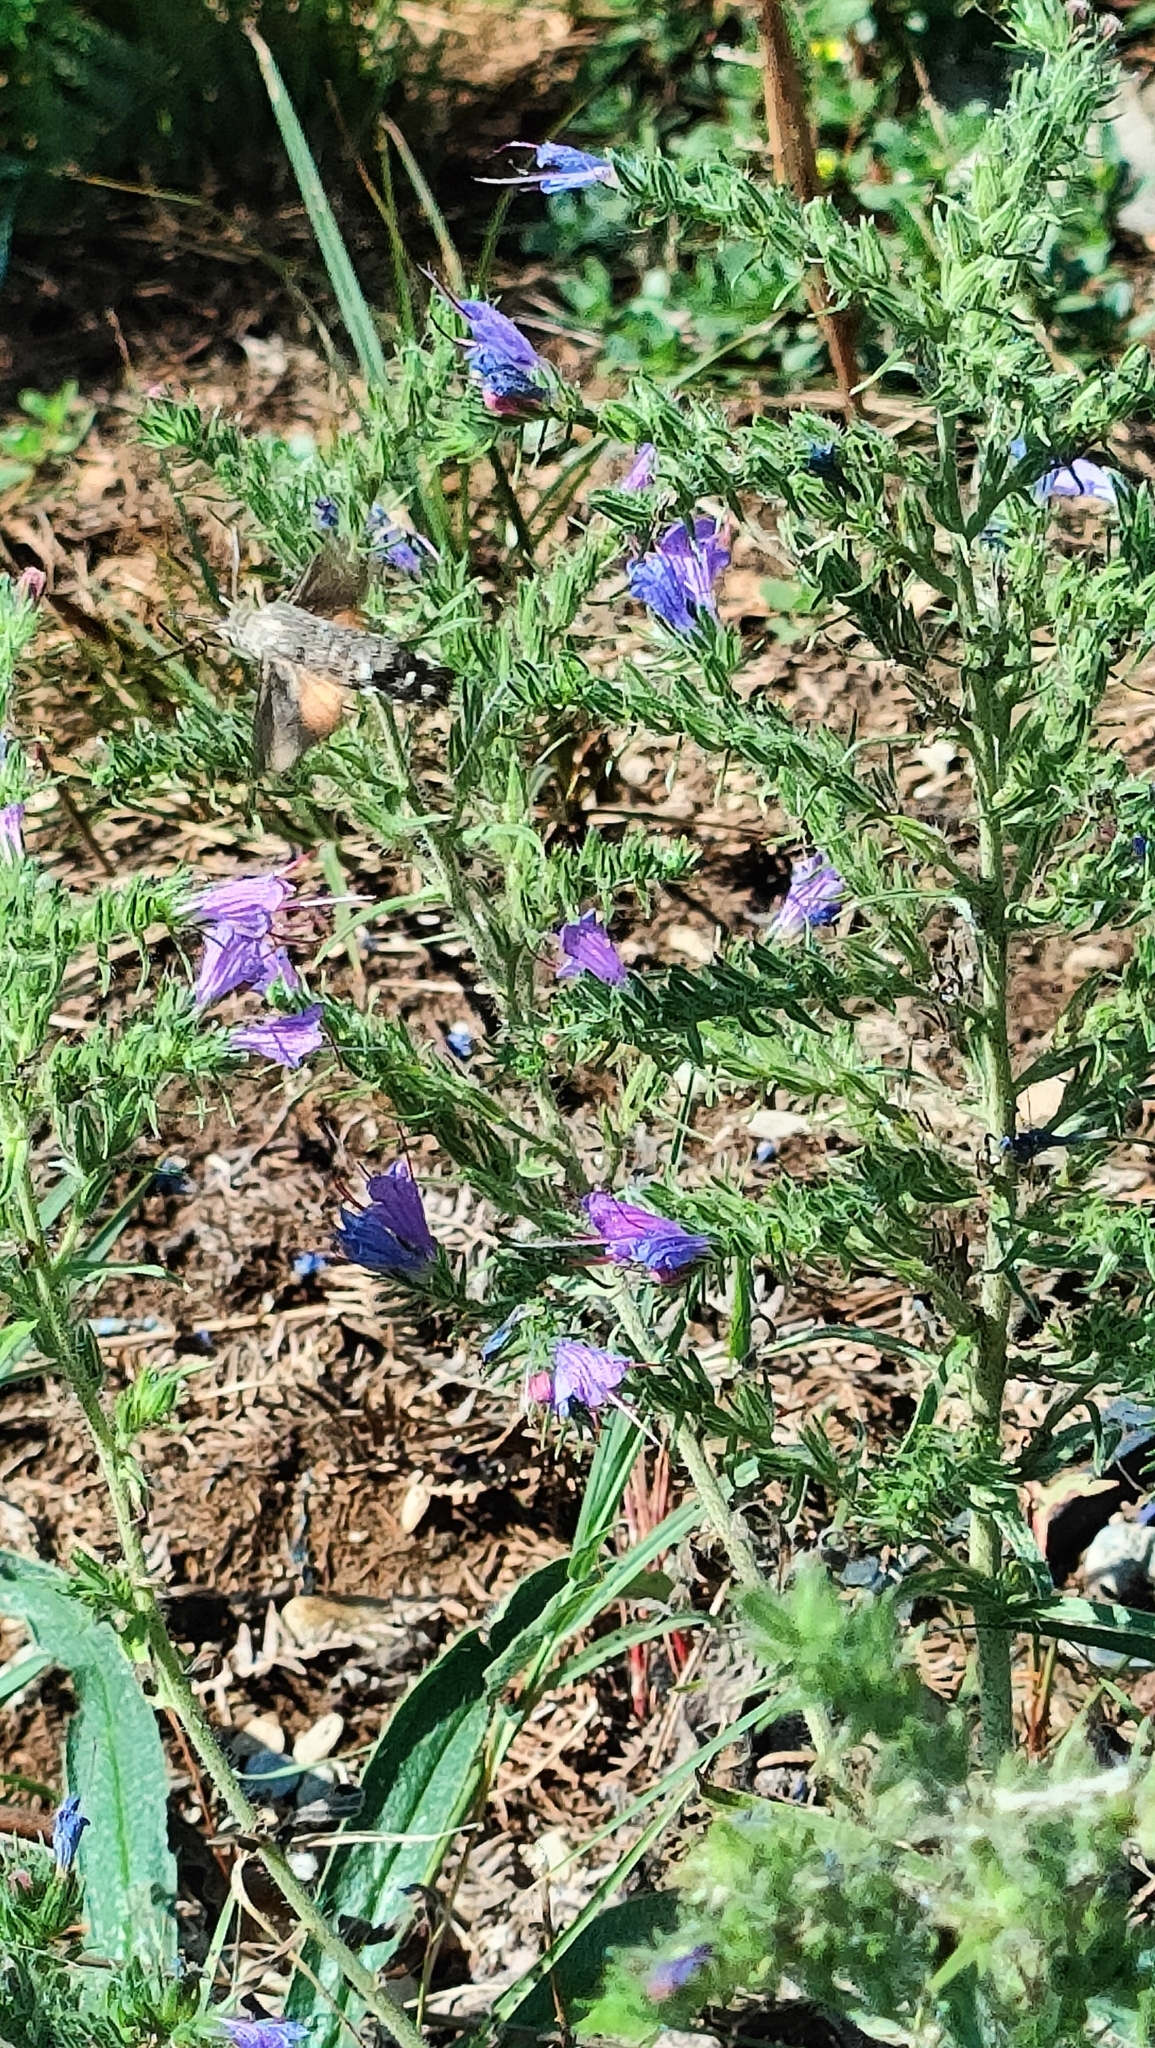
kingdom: Animalia
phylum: Arthropoda
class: Insecta
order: Lepidoptera
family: Sphingidae
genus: Macroglossum
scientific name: Macroglossum stellatarum
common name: Humming-bird hawk-moth
